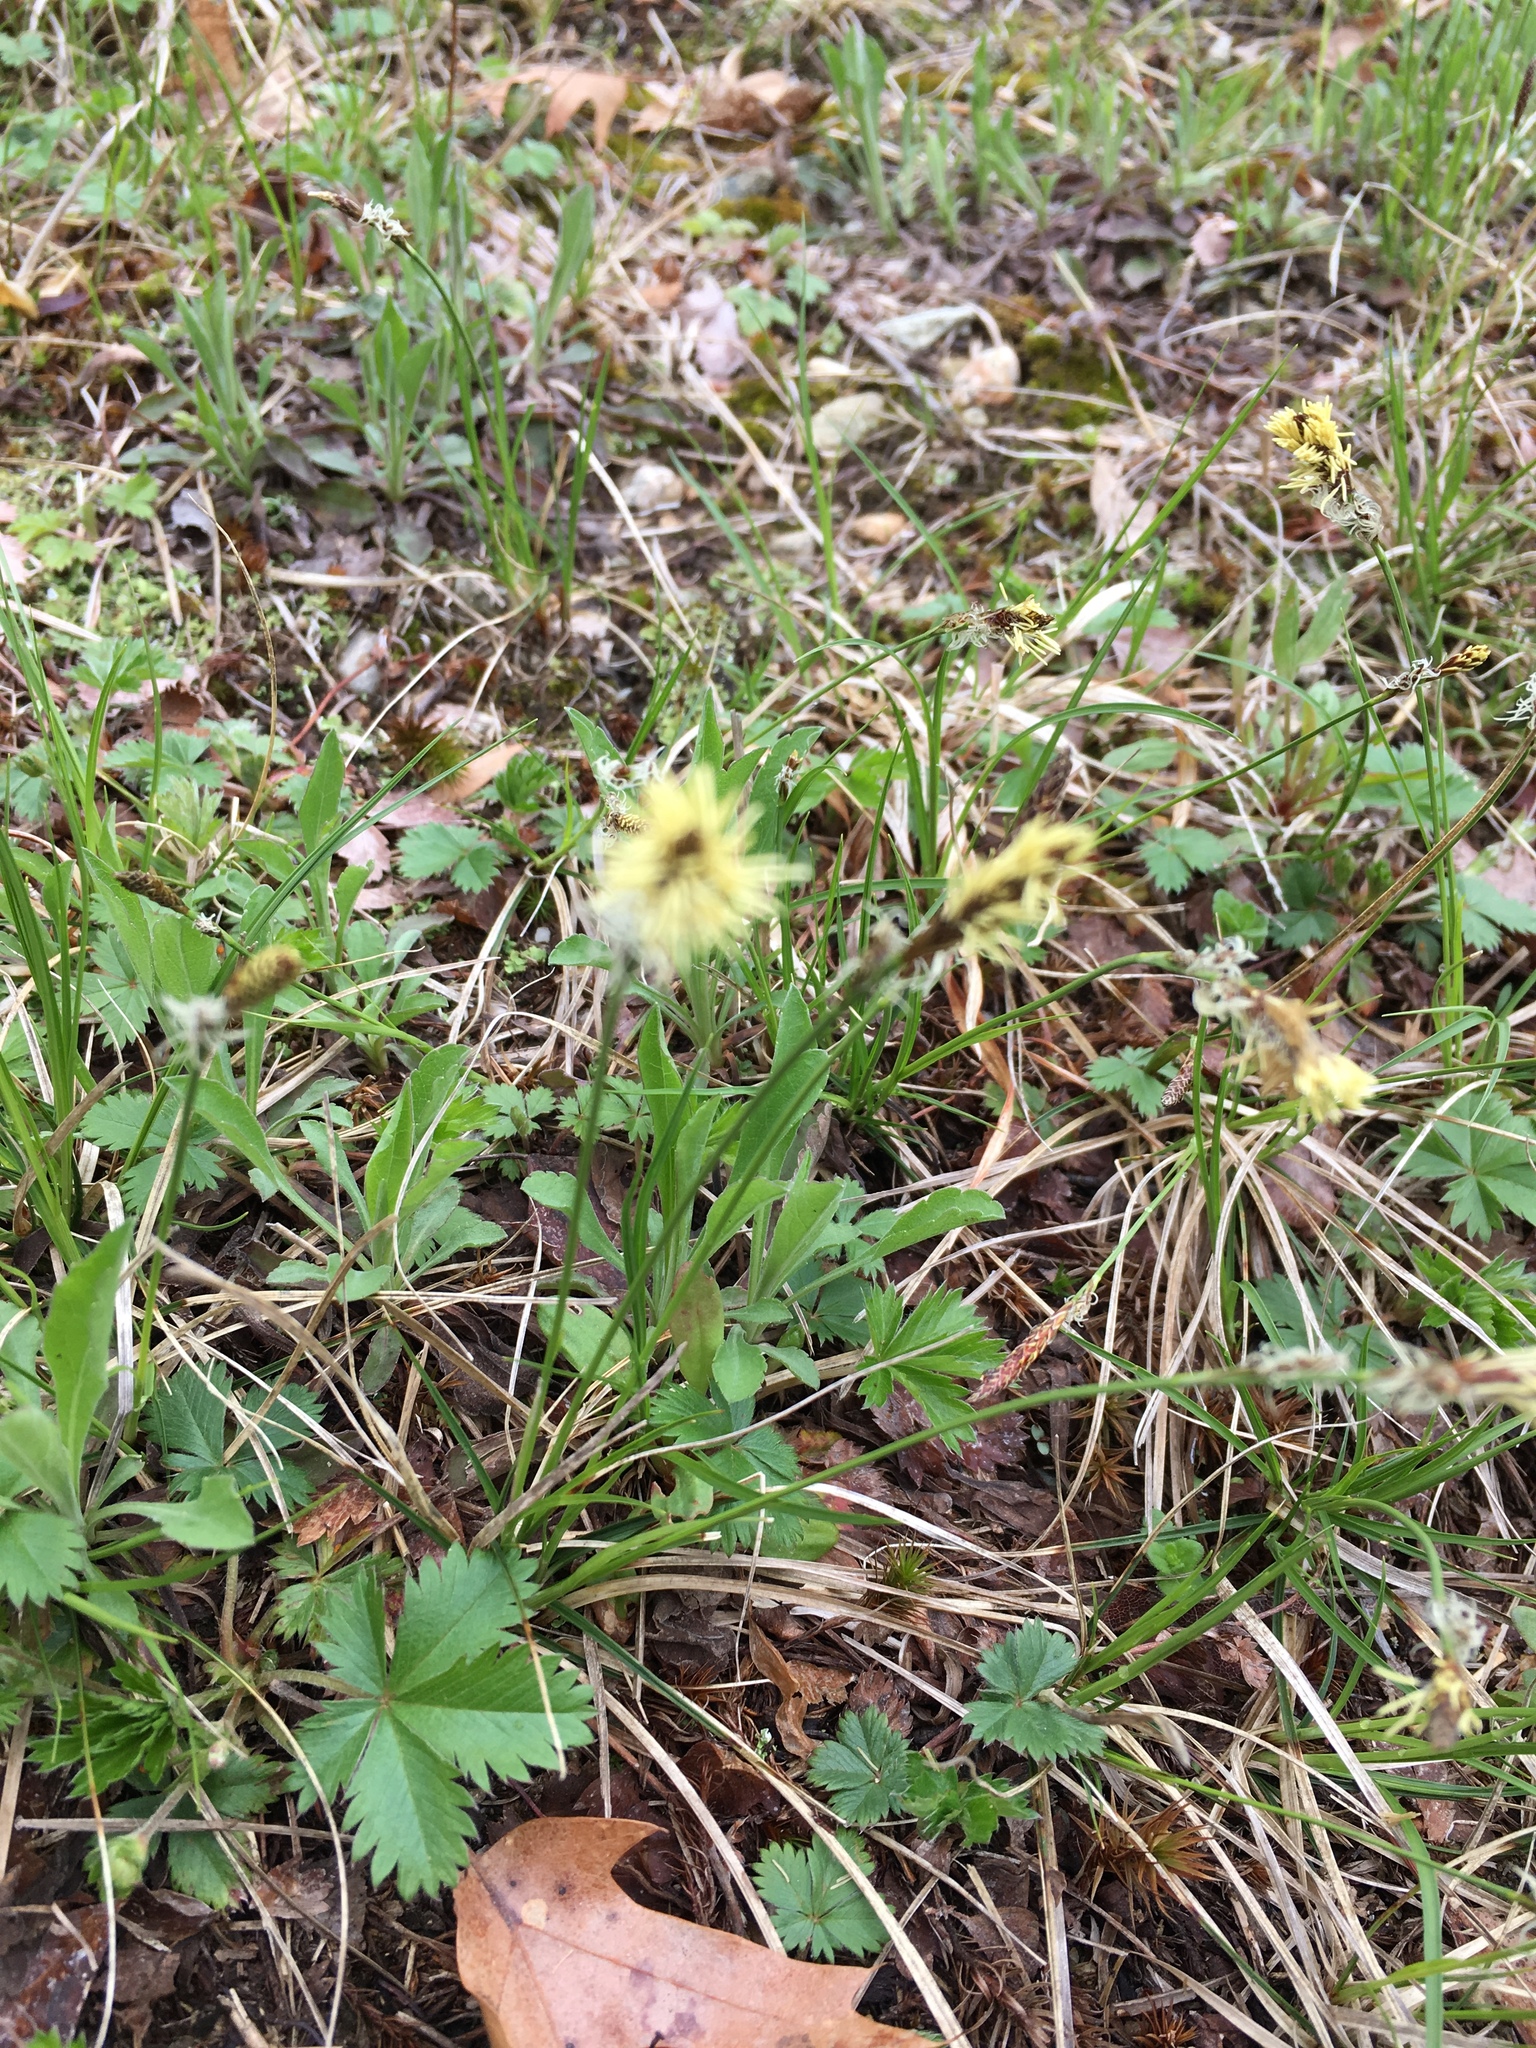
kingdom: Plantae
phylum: Tracheophyta
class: Liliopsida
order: Poales
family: Cyperaceae
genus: Carex
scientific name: Carex pensylvanica
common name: Common oak sedge
